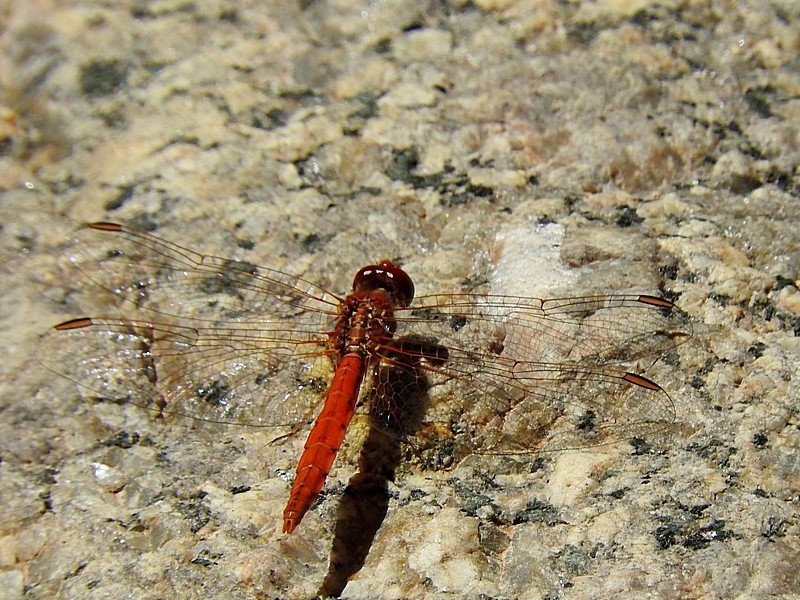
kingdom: Animalia
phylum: Arthropoda
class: Insecta
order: Odonata
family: Libellulidae
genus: Diplacodes
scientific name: Diplacodes haematodes
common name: Scarlet percher
